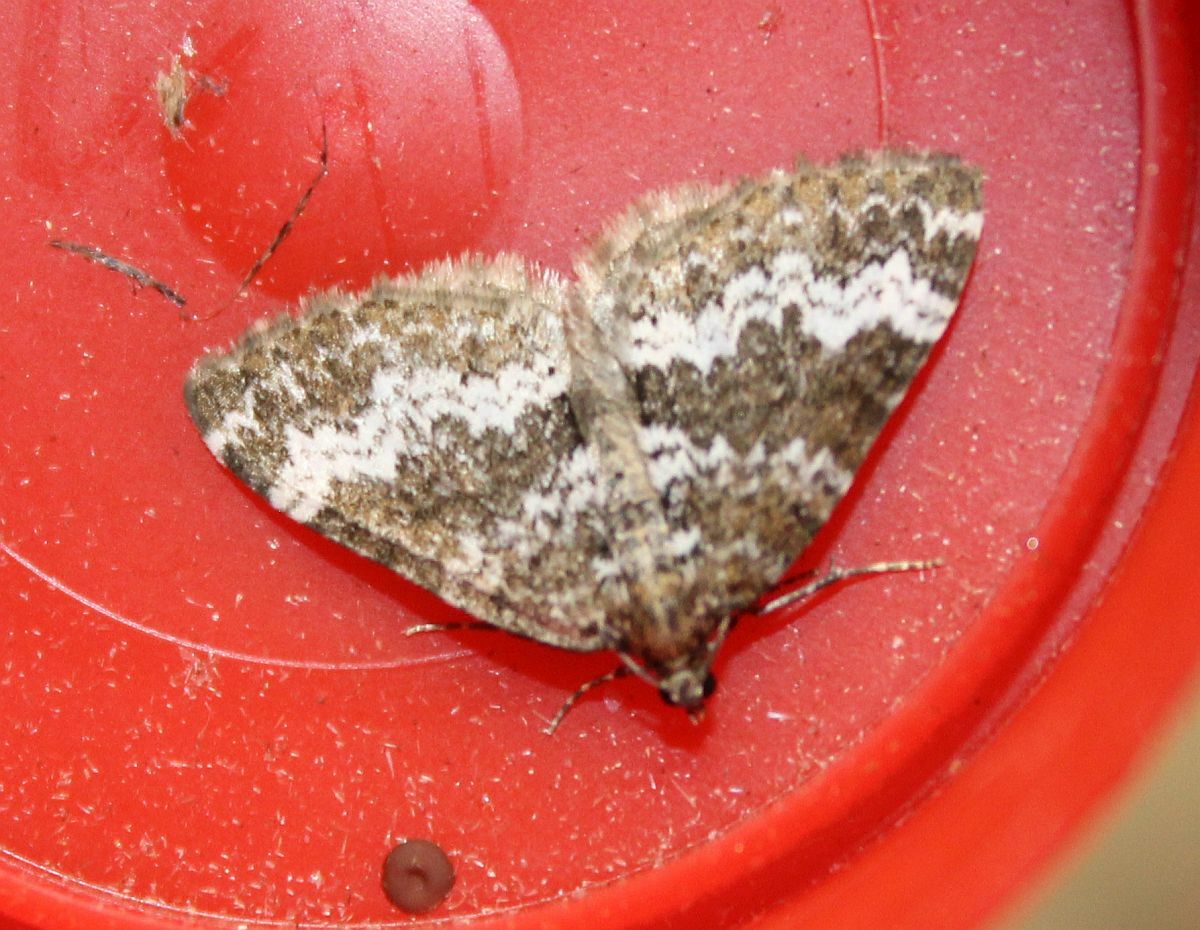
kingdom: Animalia
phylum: Arthropoda
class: Insecta
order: Lepidoptera
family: Geometridae
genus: Perizoma
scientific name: Perizoma alchemillata
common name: Small rivulet
